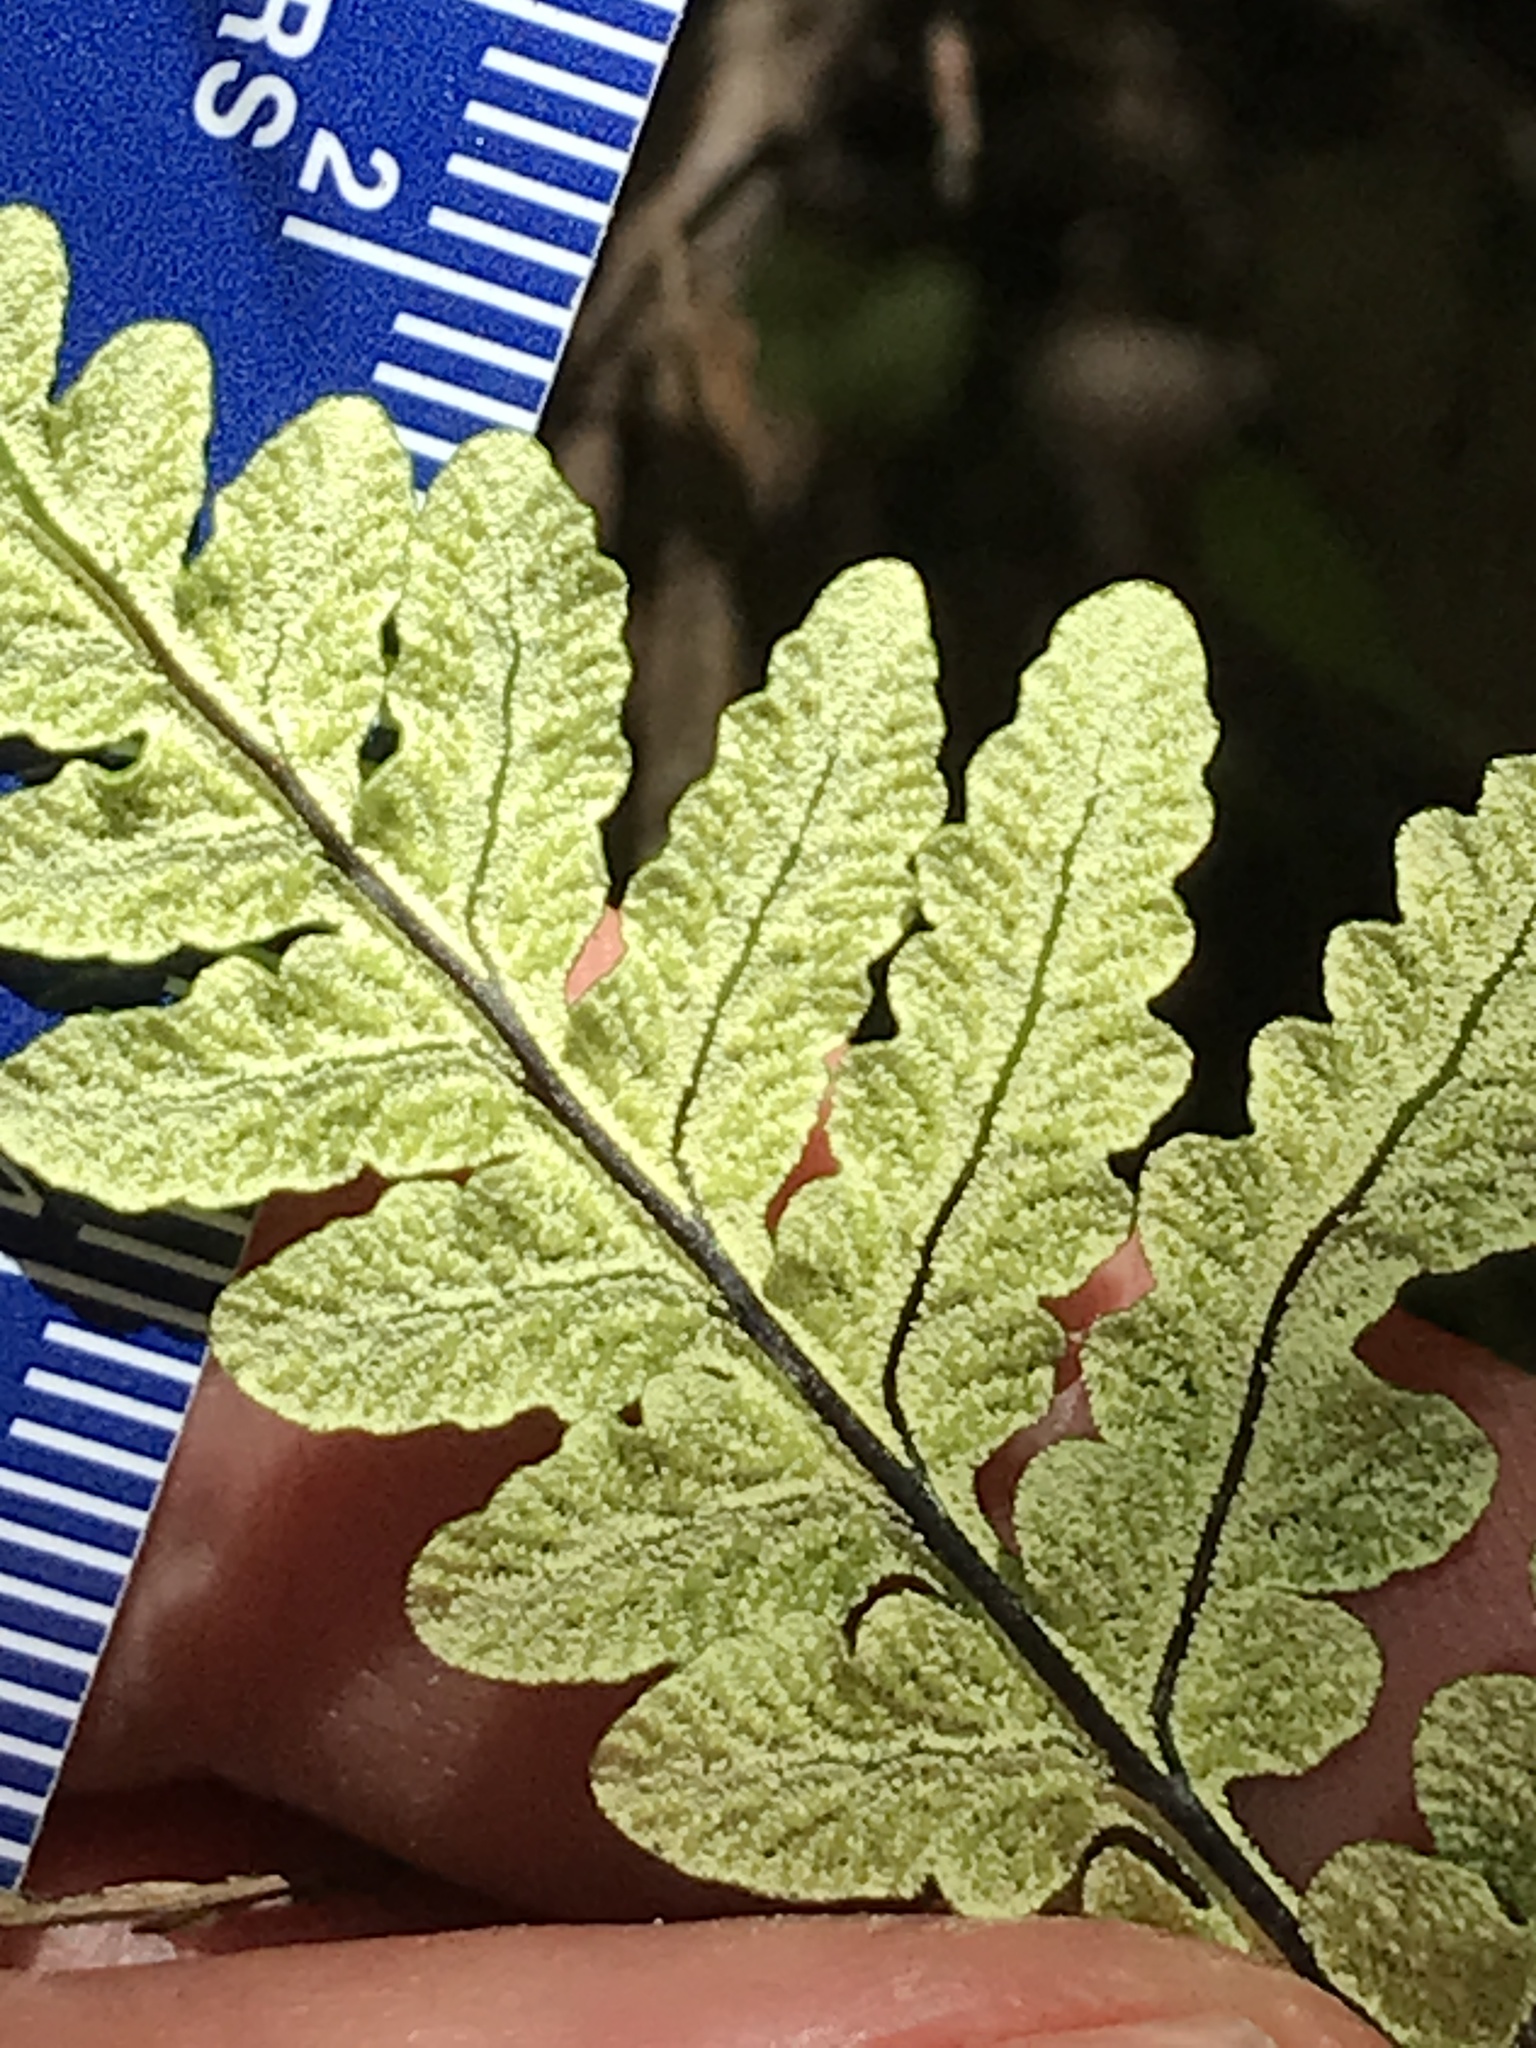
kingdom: Plantae
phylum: Tracheophyta
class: Polypodiopsida
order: Polypodiales
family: Pteridaceae
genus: Pentagramma
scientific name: Pentagramma triangularis
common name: Gold fern
